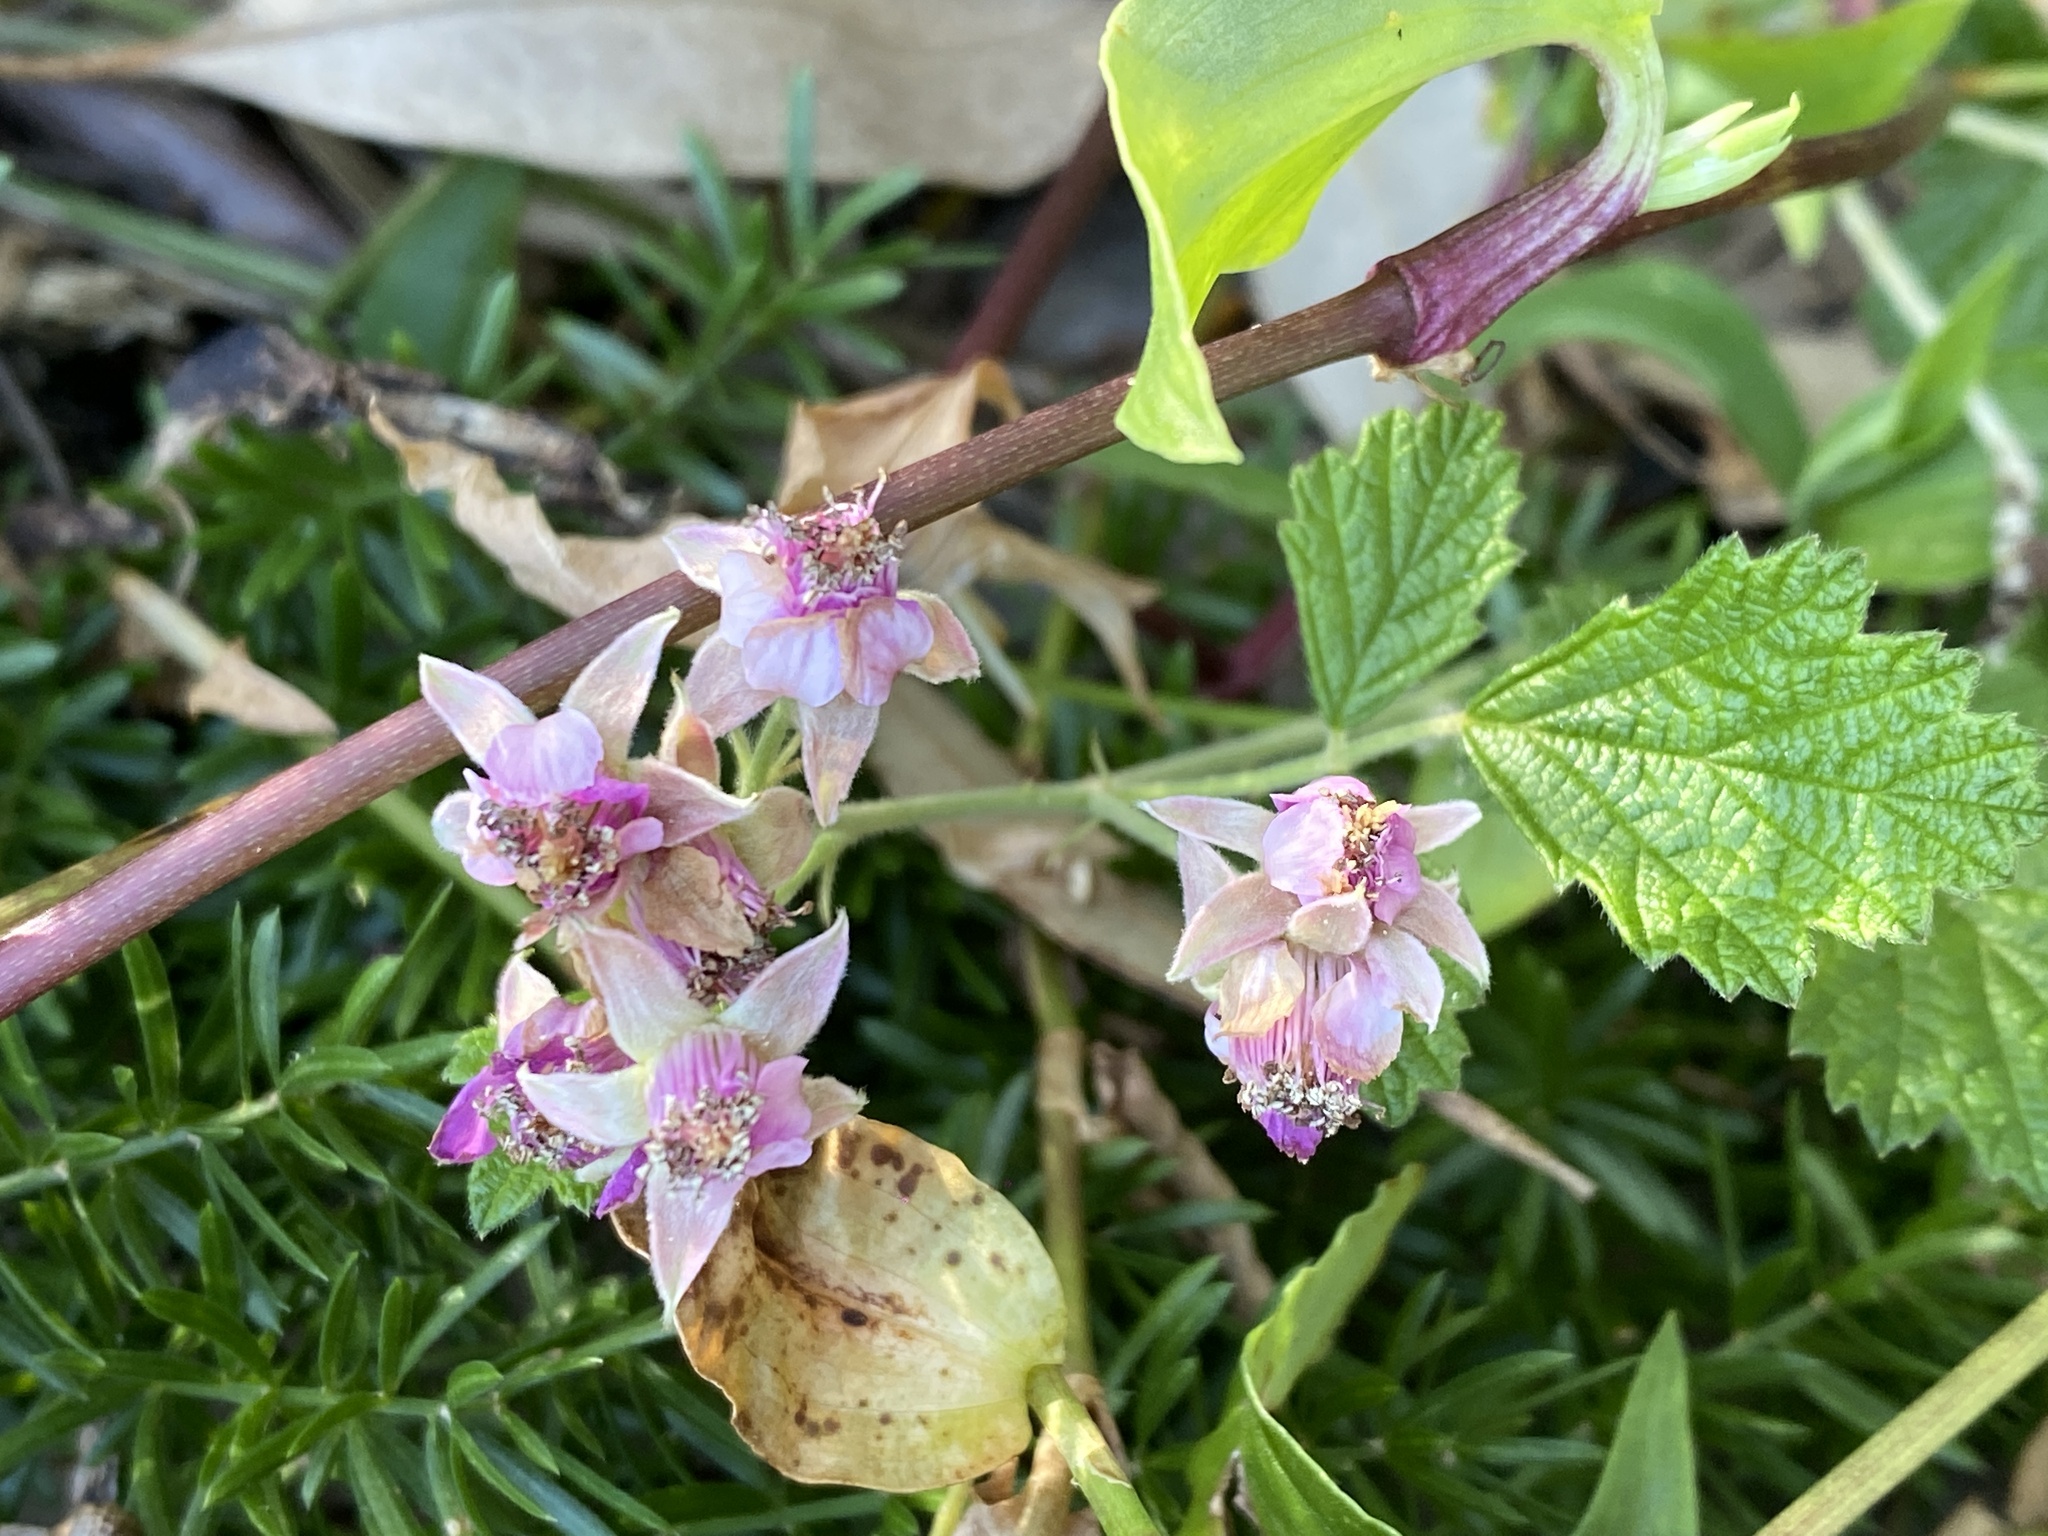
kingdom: Plantae
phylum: Tracheophyta
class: Magnoliopsida
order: Rosales
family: Rosaceae
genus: Rubus
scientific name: Rubus parvifolius
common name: Threeleaf blackberry
